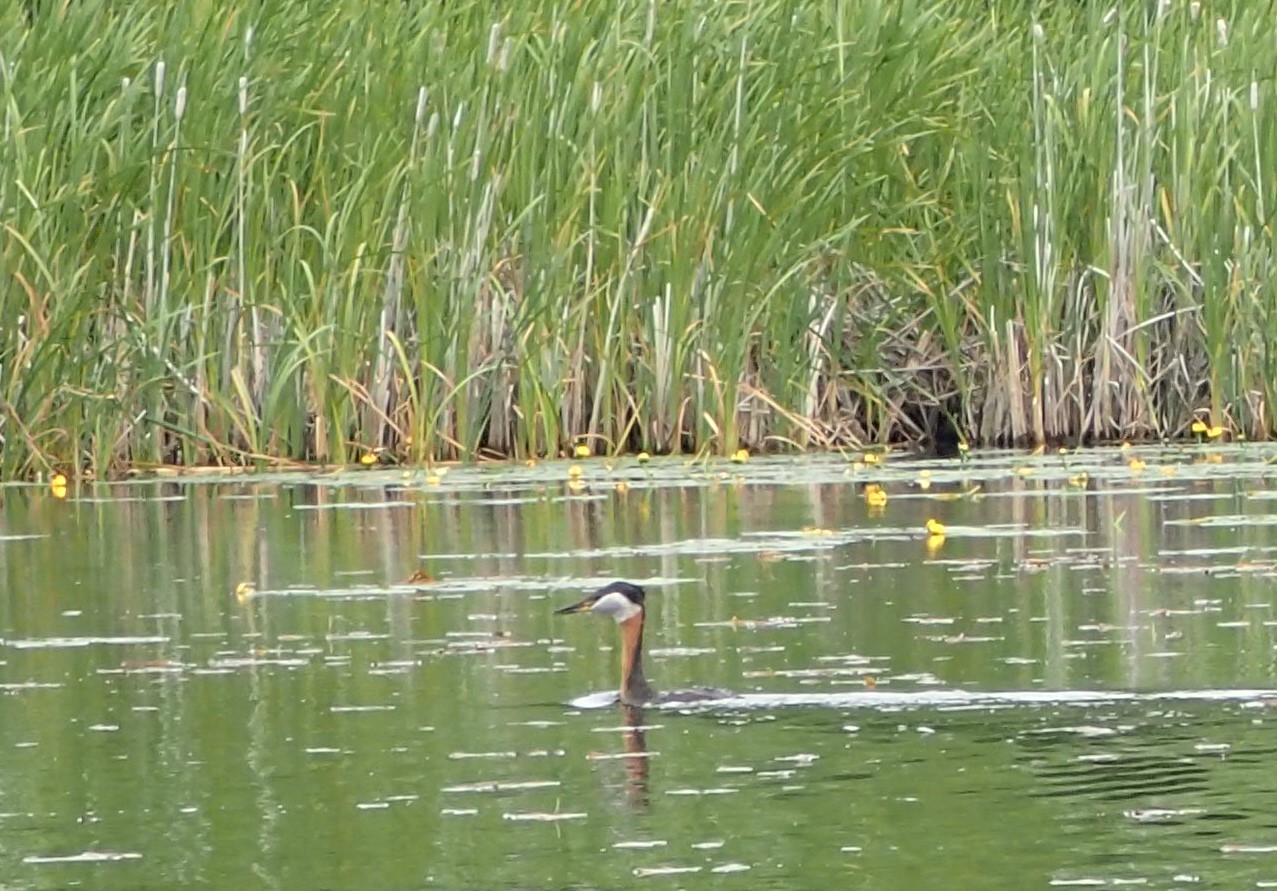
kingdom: Animalia
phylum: Chordata
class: Aves
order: Podicipediformes
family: Podicipedidae
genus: Podiceps
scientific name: Podiceps grisegena
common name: Red-necked grebe
